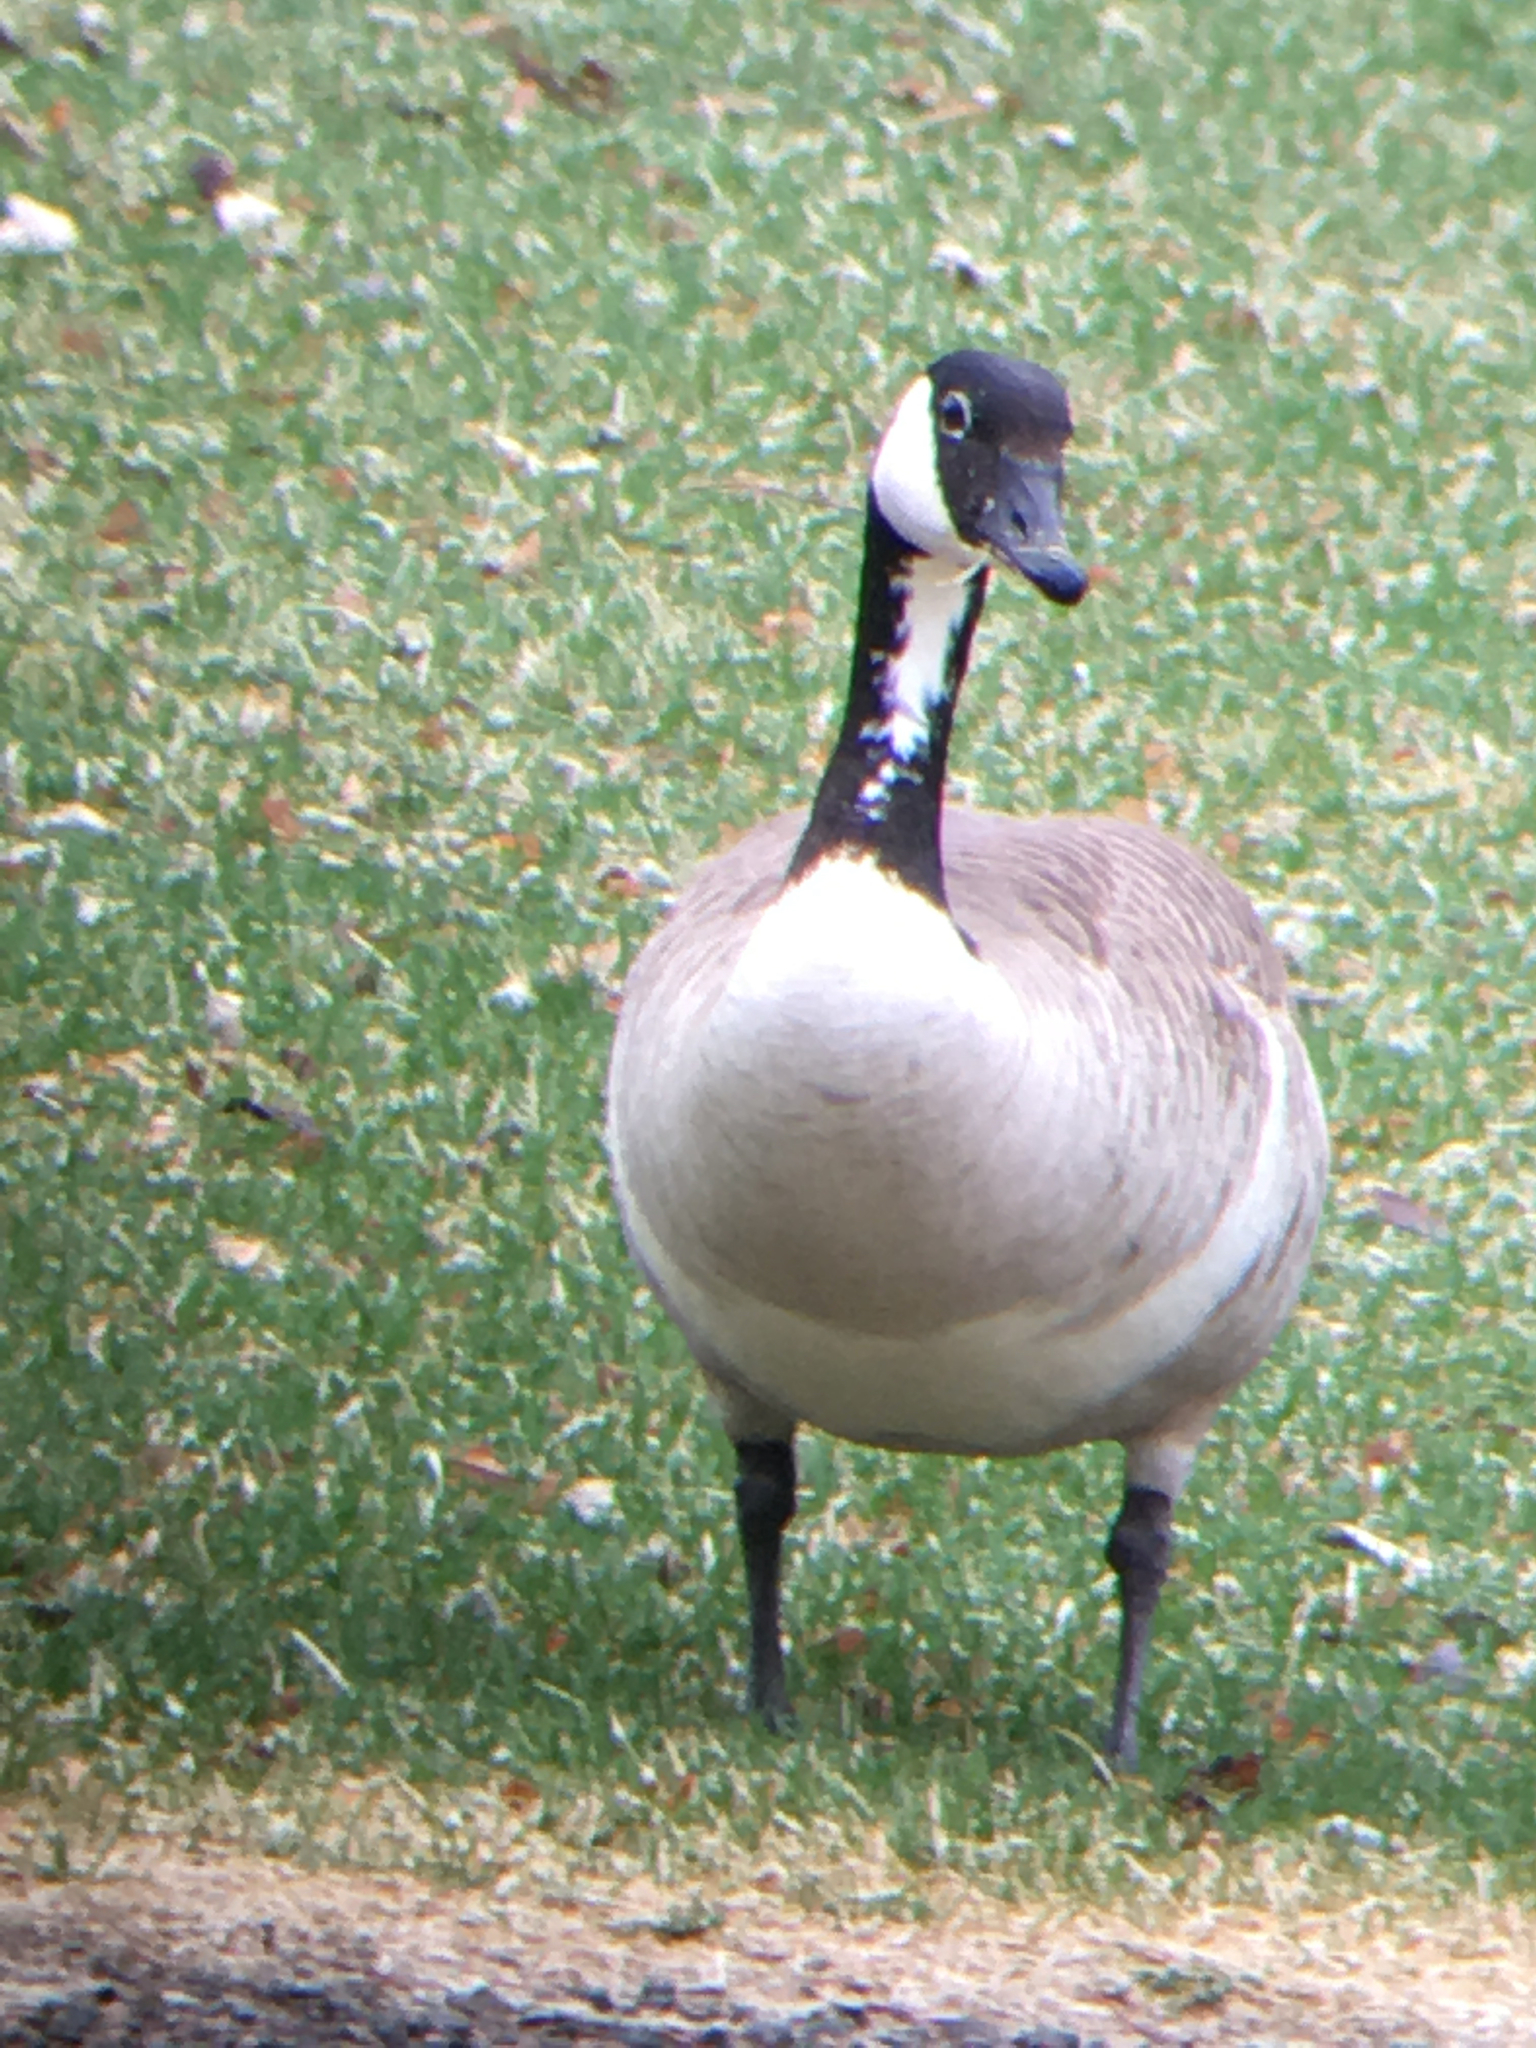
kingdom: Animalia
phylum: Chordata
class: Aves
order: Anseriformes
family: Anatidae
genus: Branta
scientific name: Branta canadensis
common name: Canada goose
